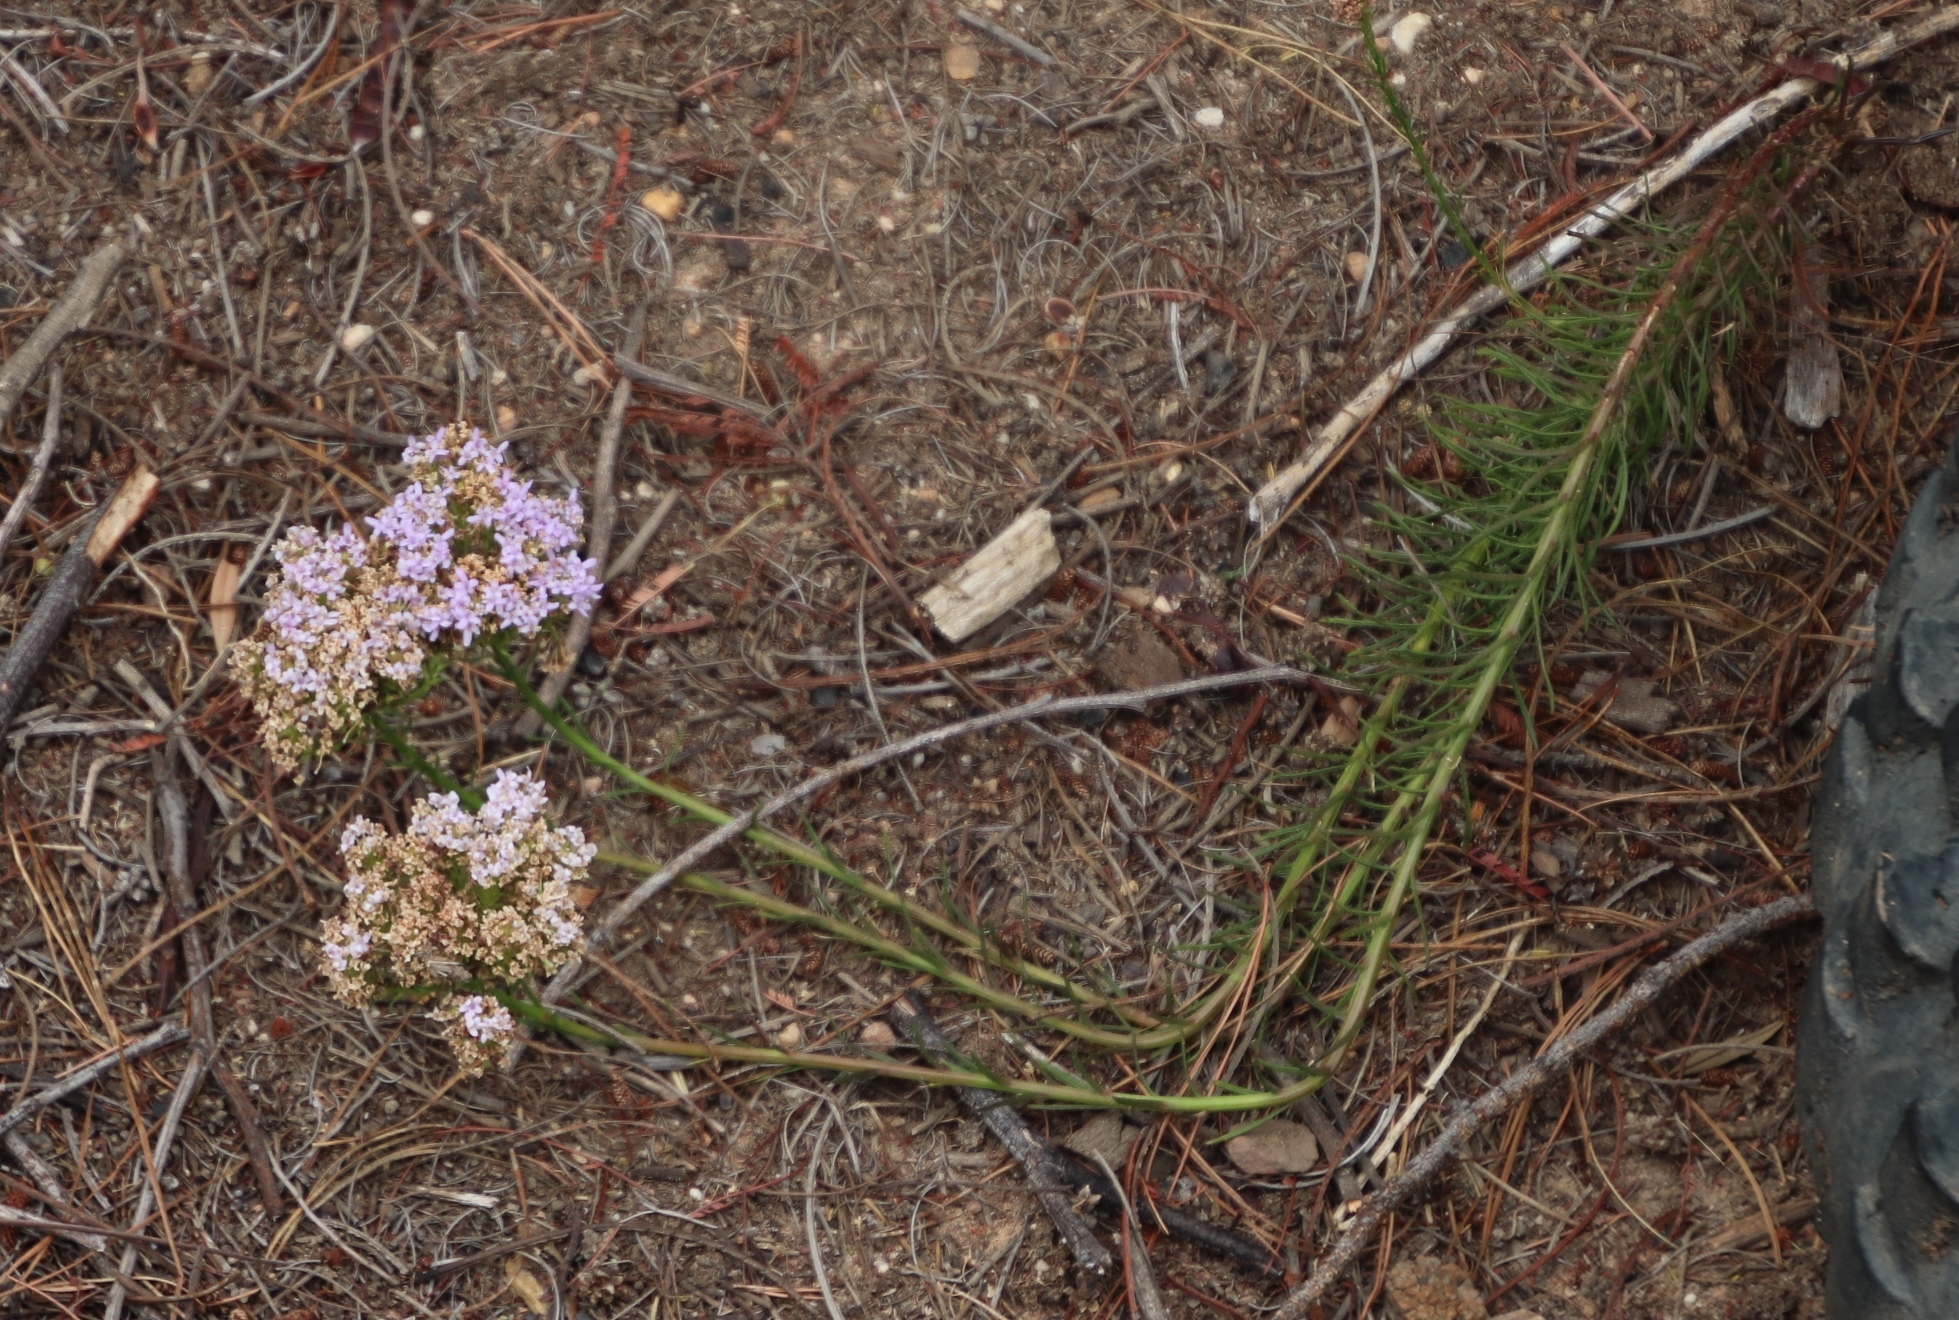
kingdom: Plantae
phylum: Tracheophyta
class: Magnoliopsida
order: Lamiales
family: Scrophulariaceae
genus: Pseudoselago
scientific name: Pseudoselago spuria
